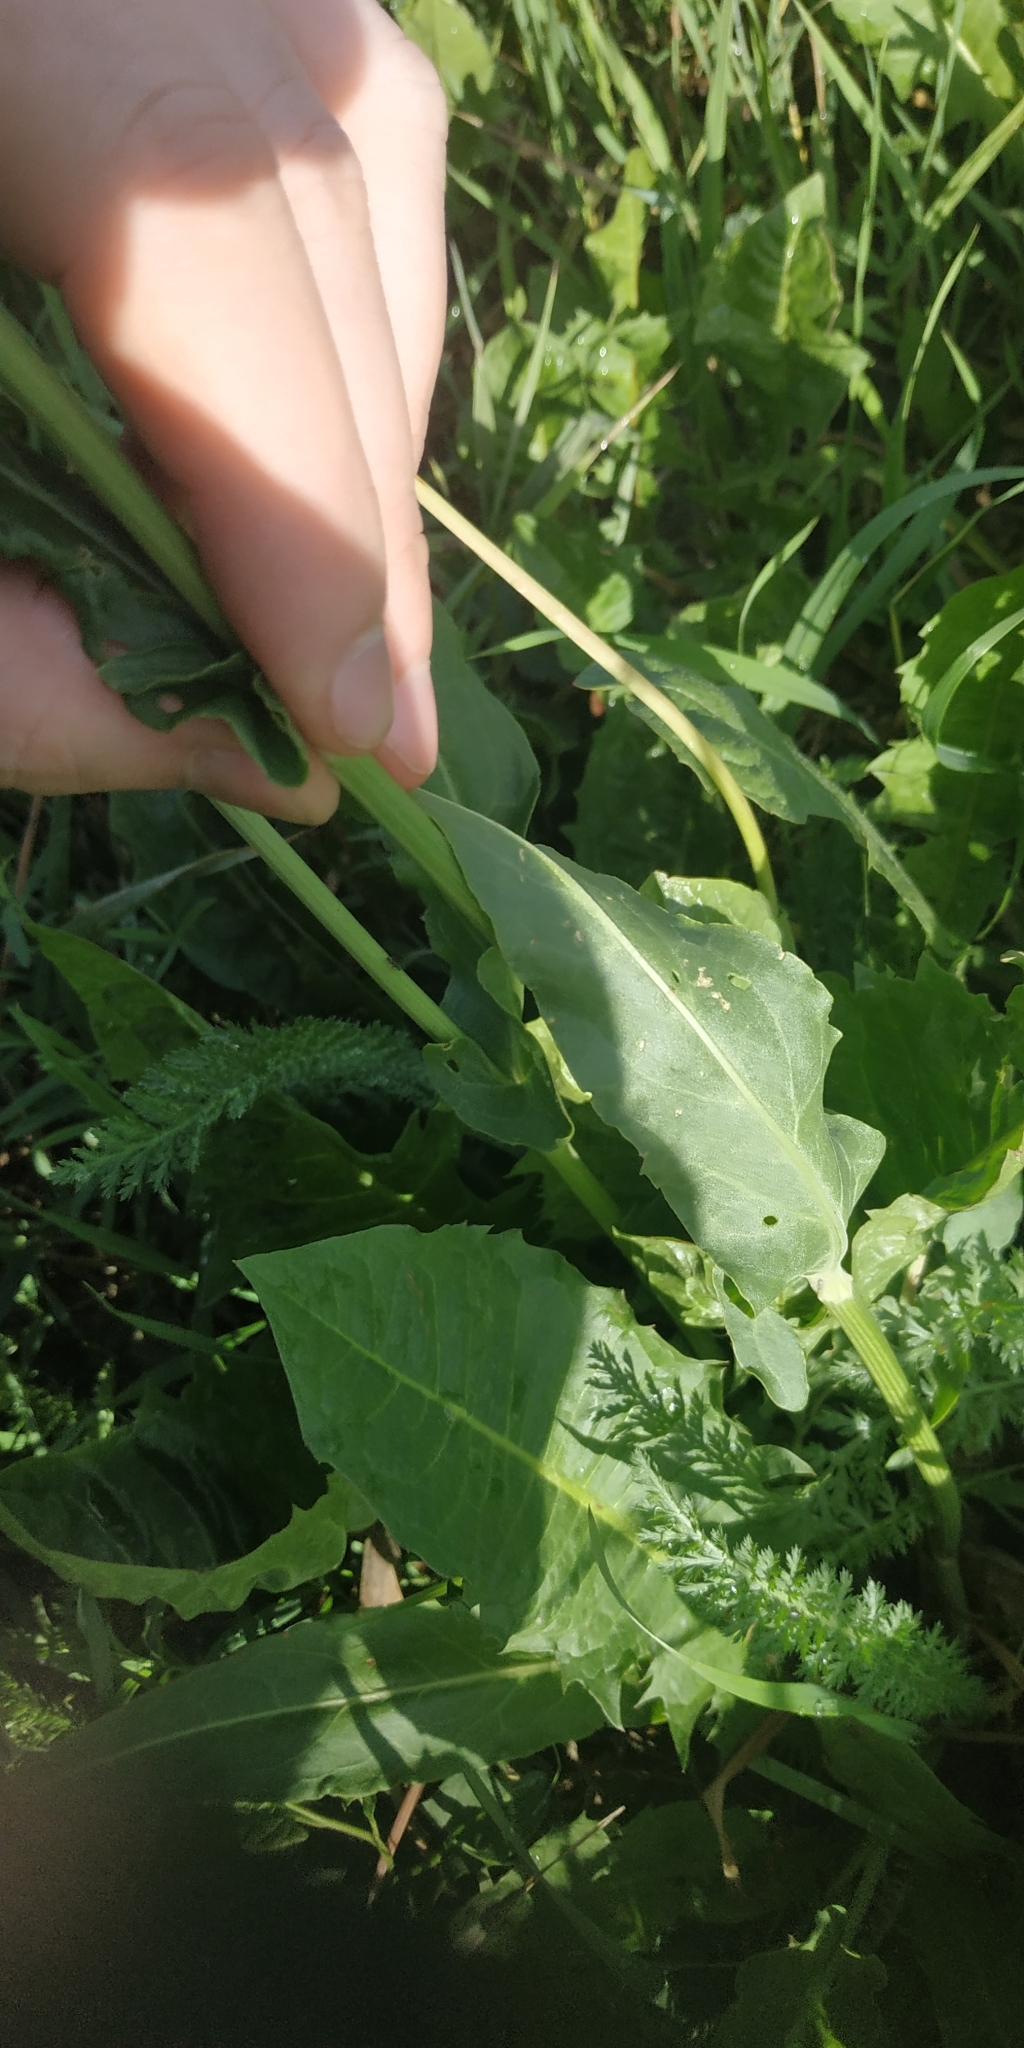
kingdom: Plantae
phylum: Tracheophyta
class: Magnoliopsida
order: Caryophyllales
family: Polygonaceae
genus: Rumex
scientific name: Rumex thyrsiflorus
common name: Garden sorrel
